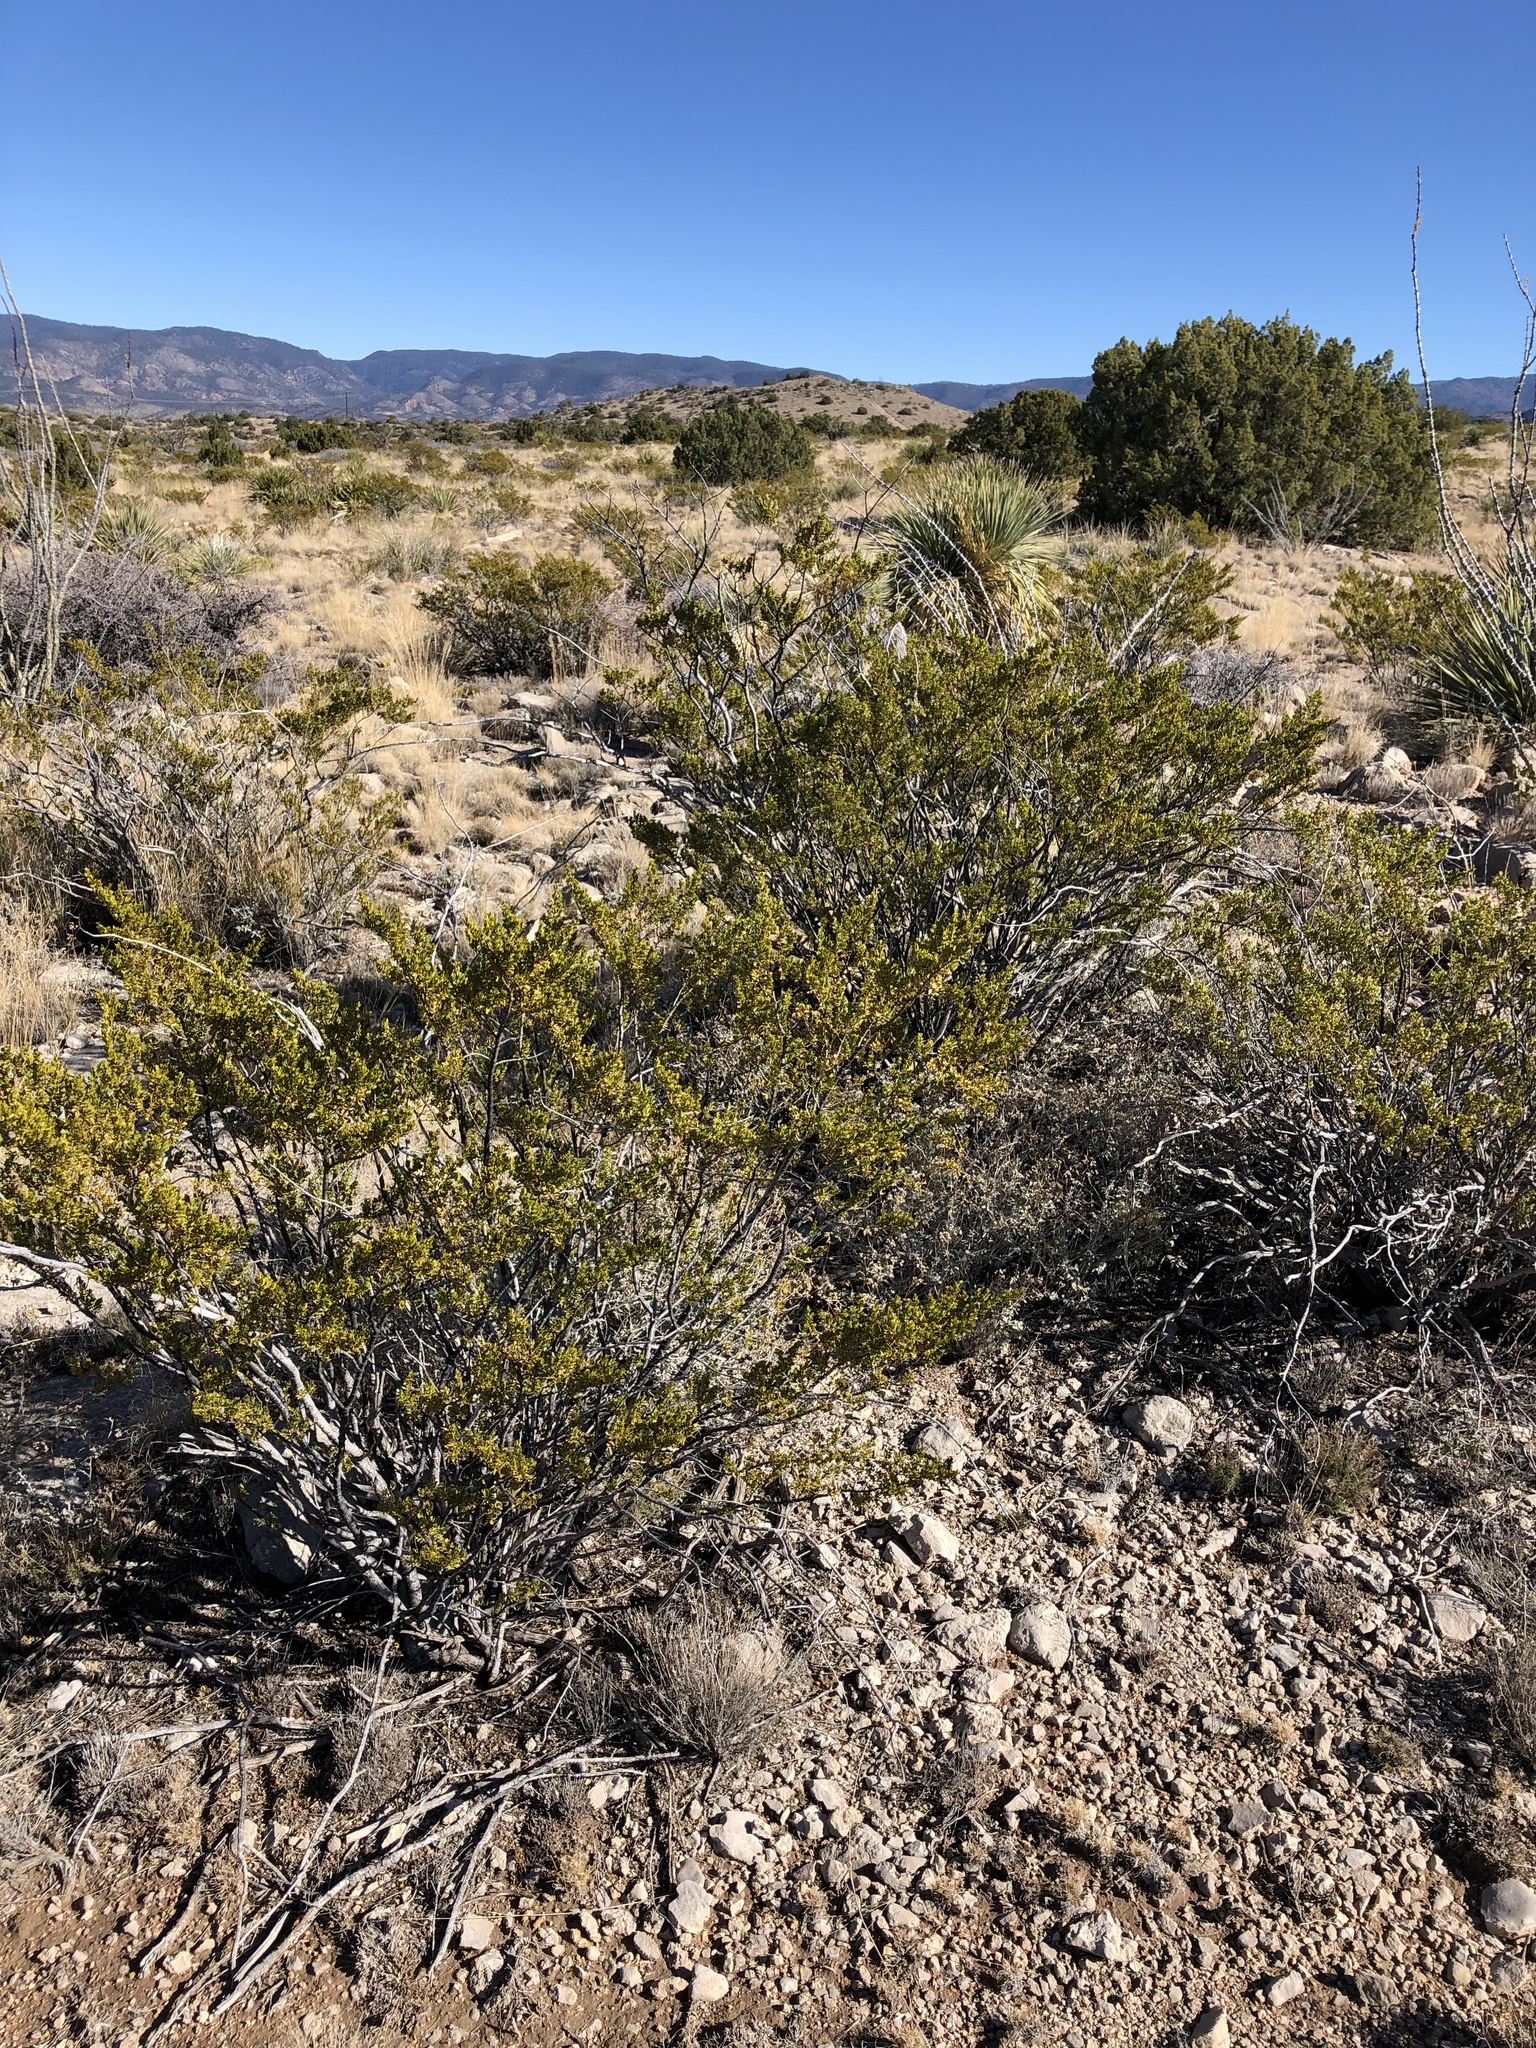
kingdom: Plantae
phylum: Tracheophyta
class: Magnoliopsida
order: Zygophyllales
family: Zygophyllaceae
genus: Larrea
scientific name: Larrea tridentata
